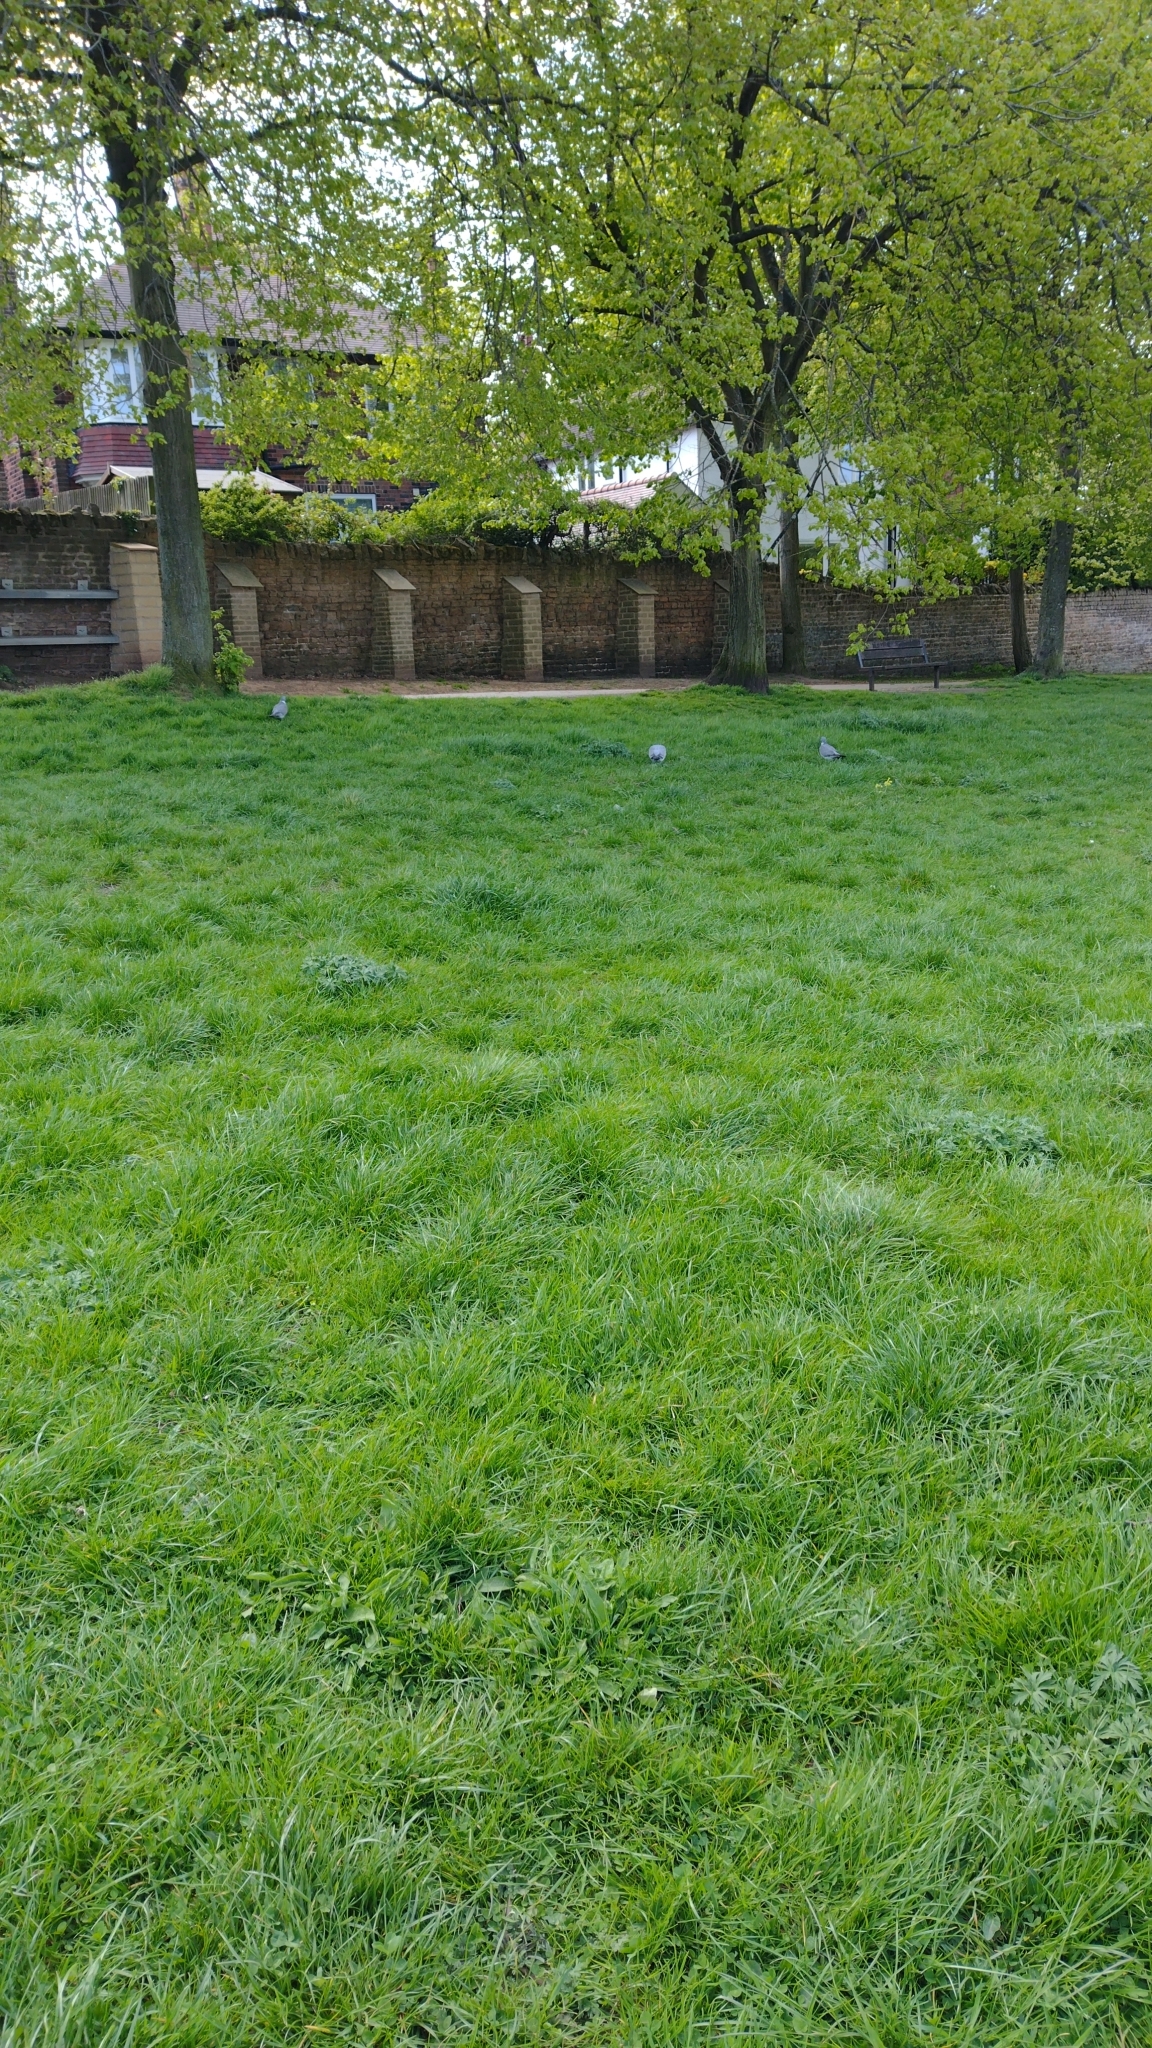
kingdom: Animalia
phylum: Chordata
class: Aves
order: Columbiformes
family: Columbidae
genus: Columba
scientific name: Columba palumbus
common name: Common wood pigeon
